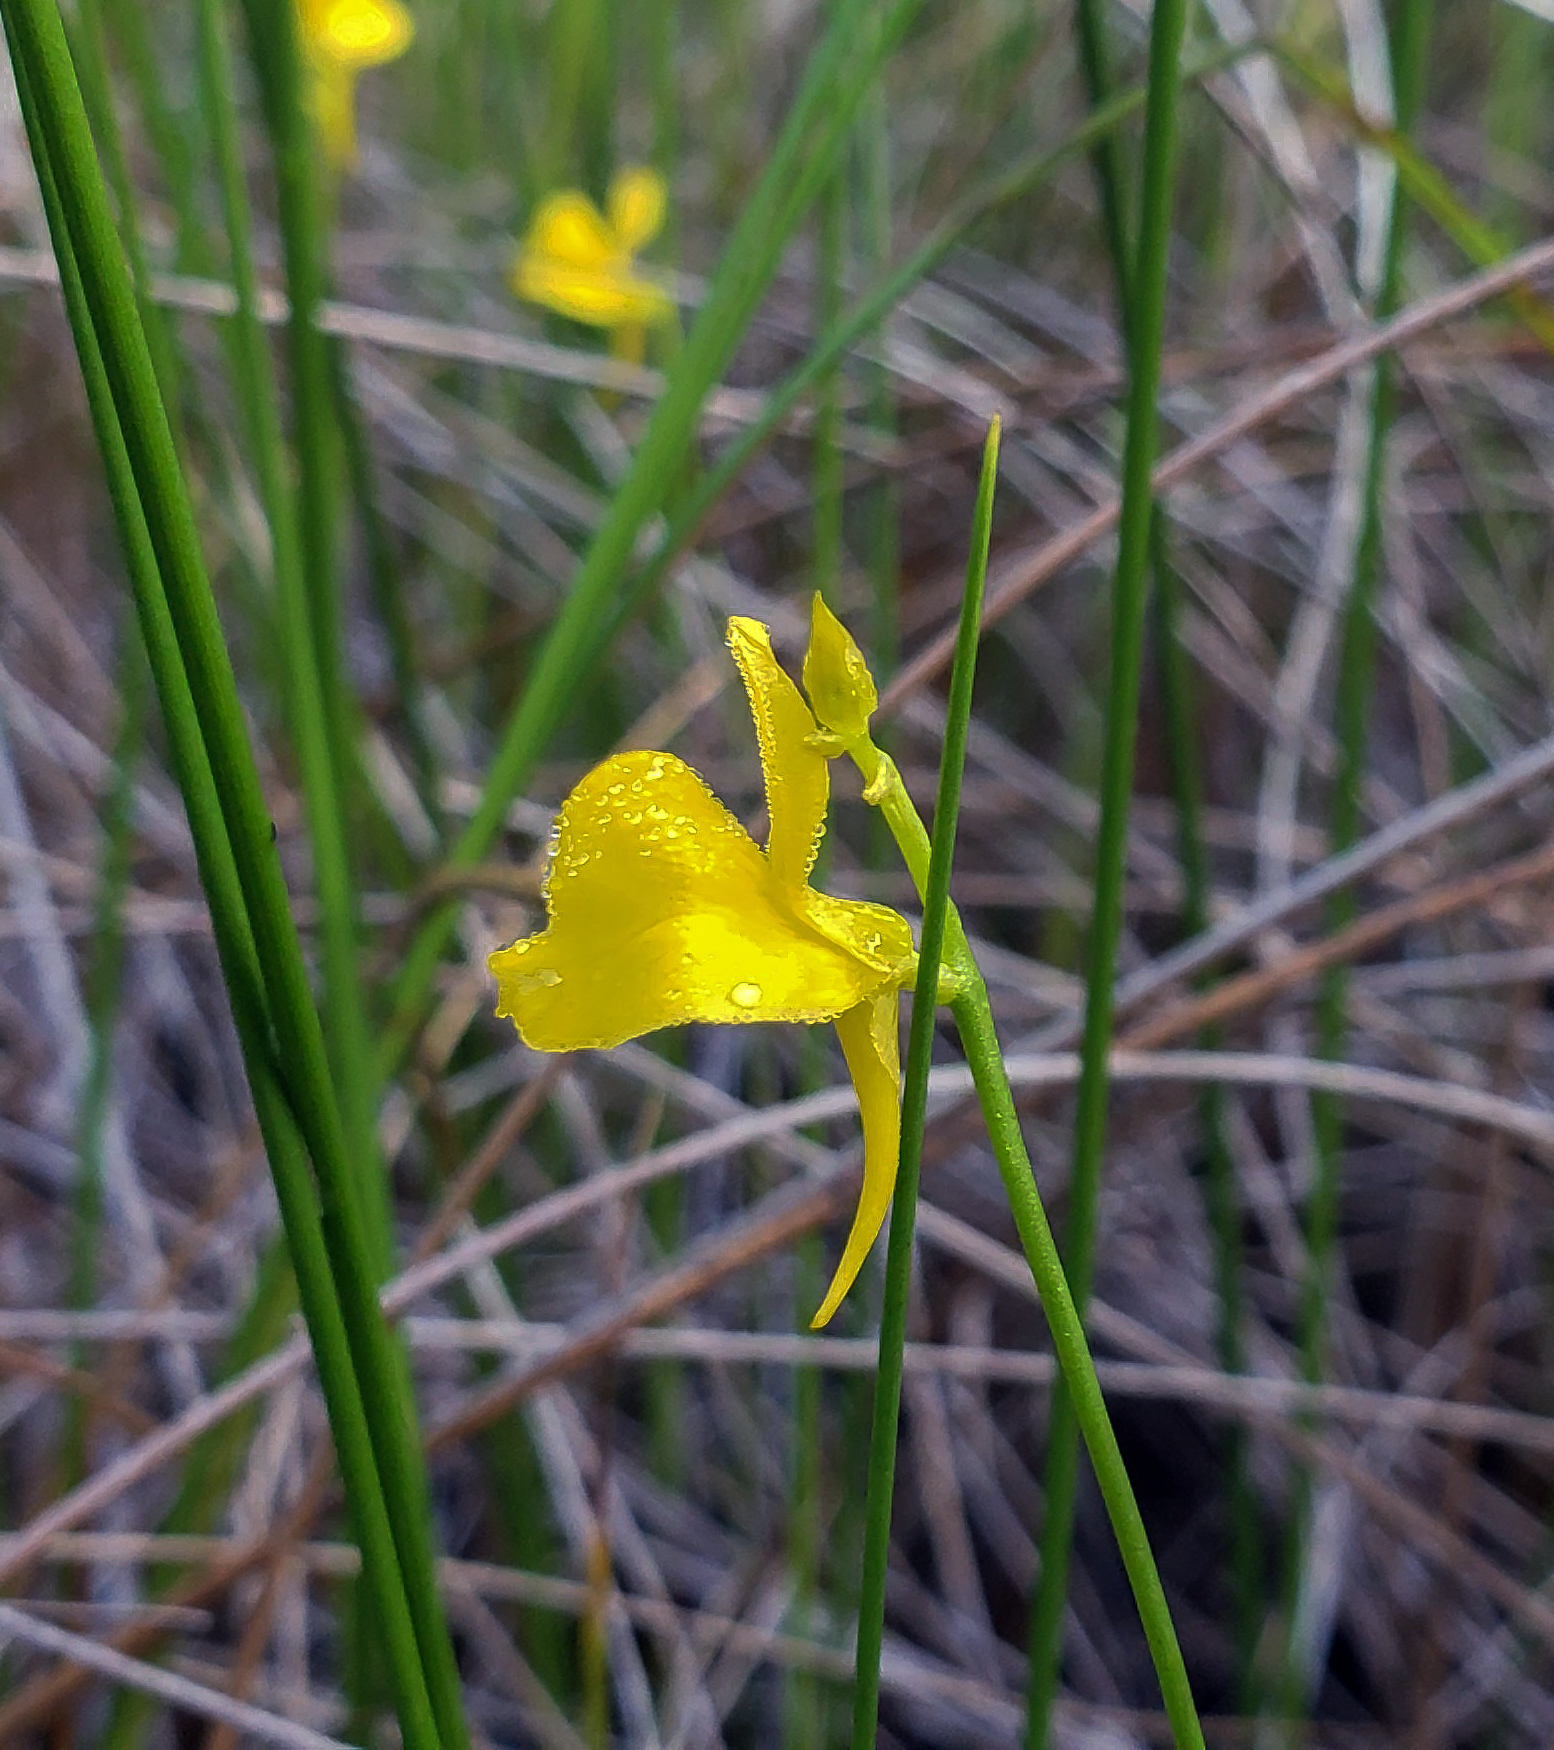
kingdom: Plantae
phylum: Tracheophyta
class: Magnoliopsida
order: Lamiales
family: Lentibulariaceae
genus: Utricularia
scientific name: Utricularia cornuta
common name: Horned bladderwort
